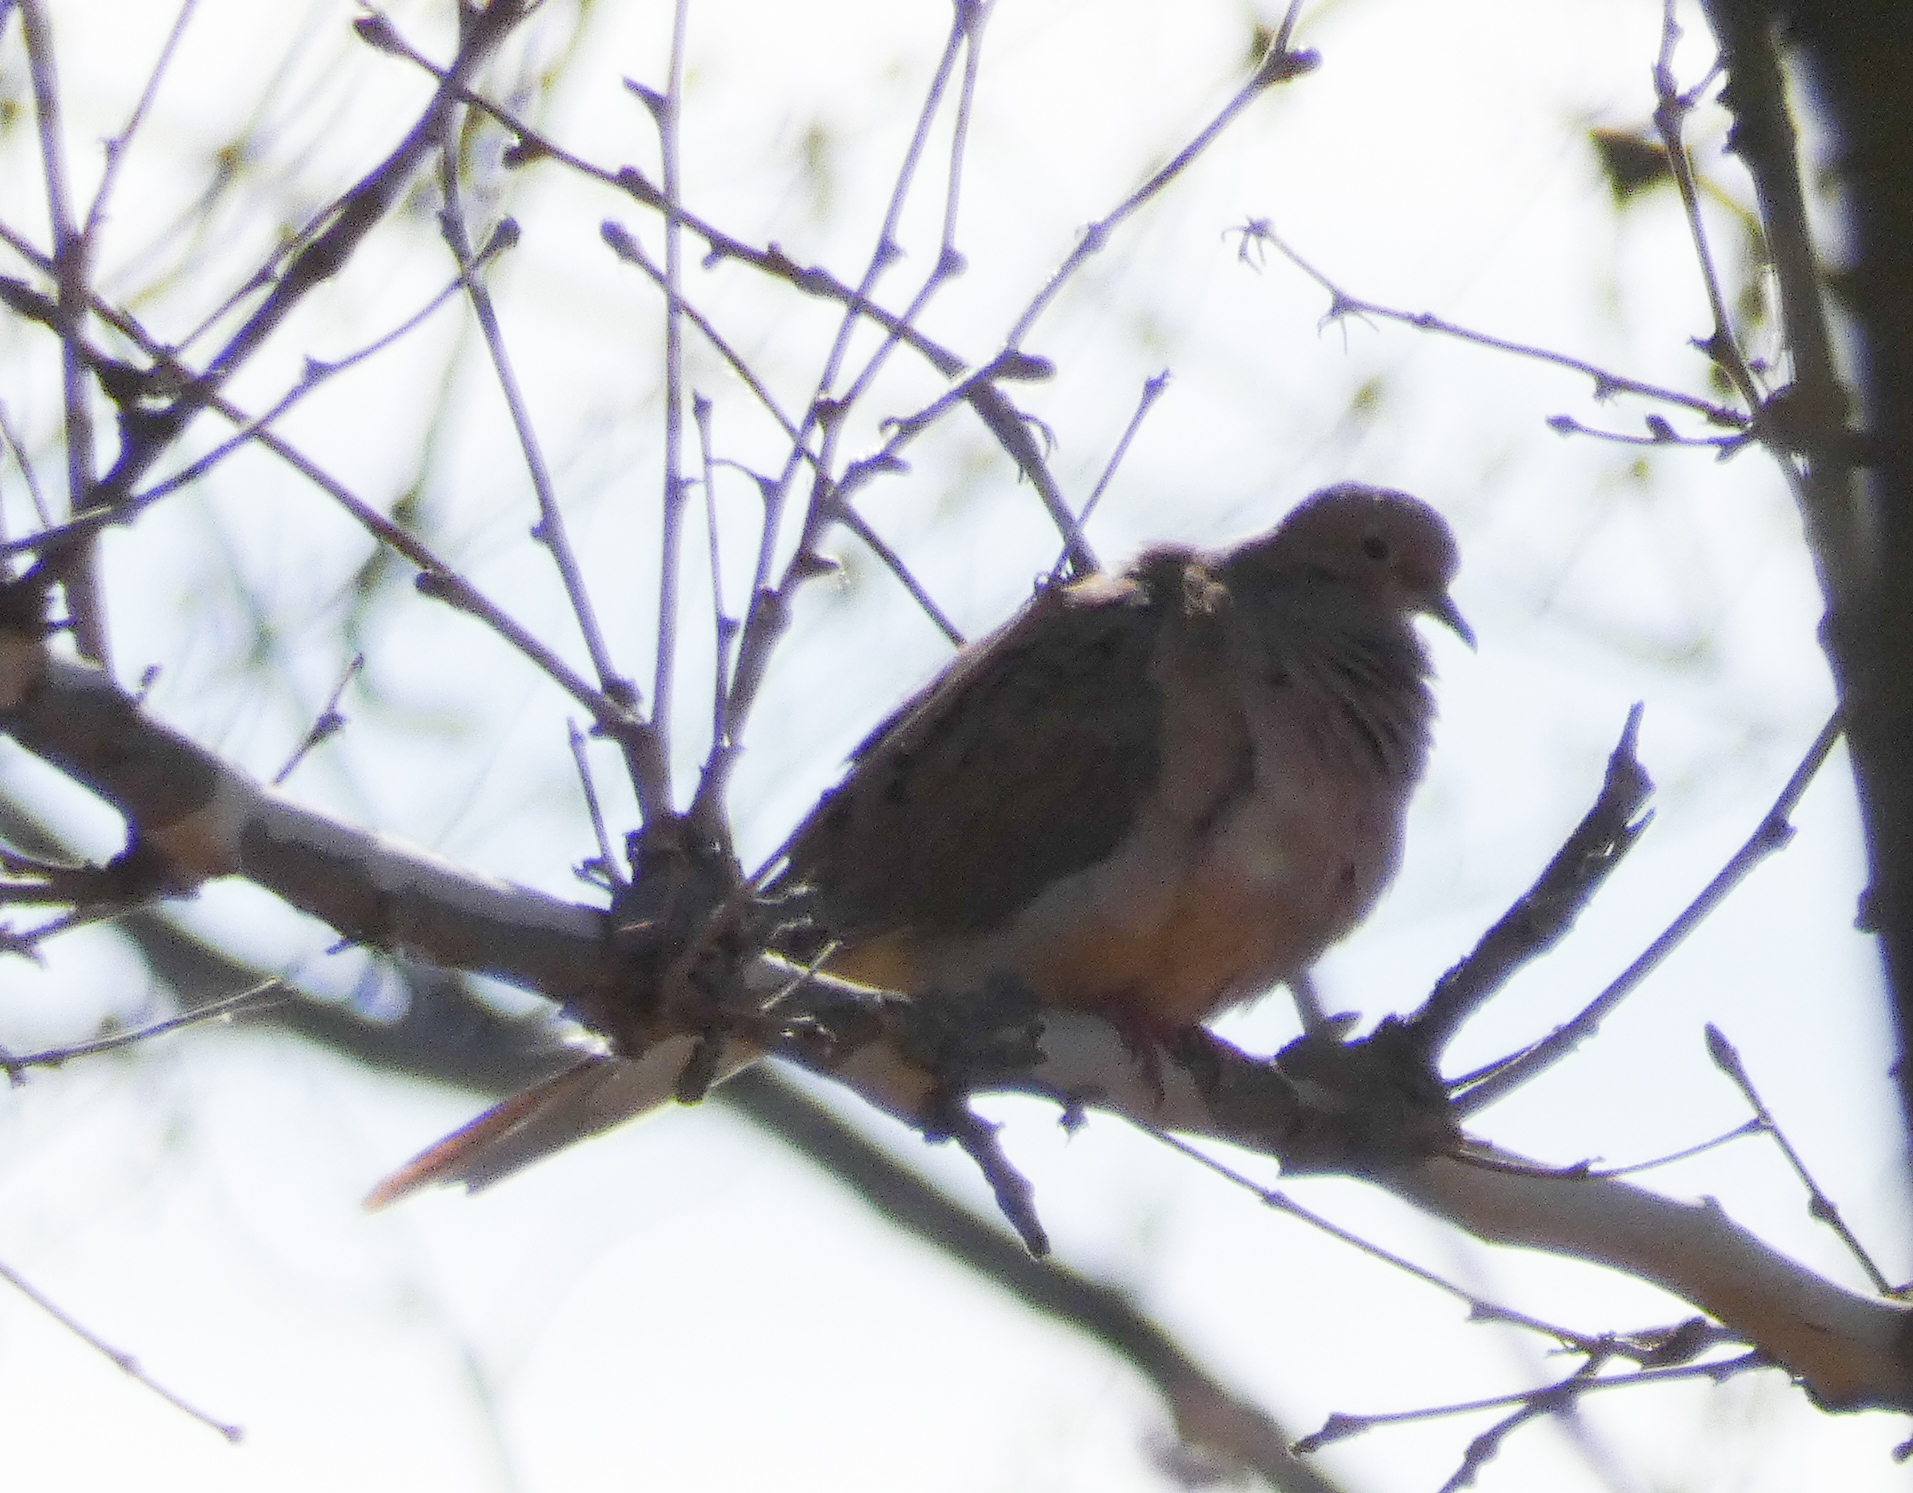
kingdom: Animalia
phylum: Chordata
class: Aves
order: Columbiformes
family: Columbidae
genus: Zenaida
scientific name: Zenaida macroura
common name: Mourning dove
